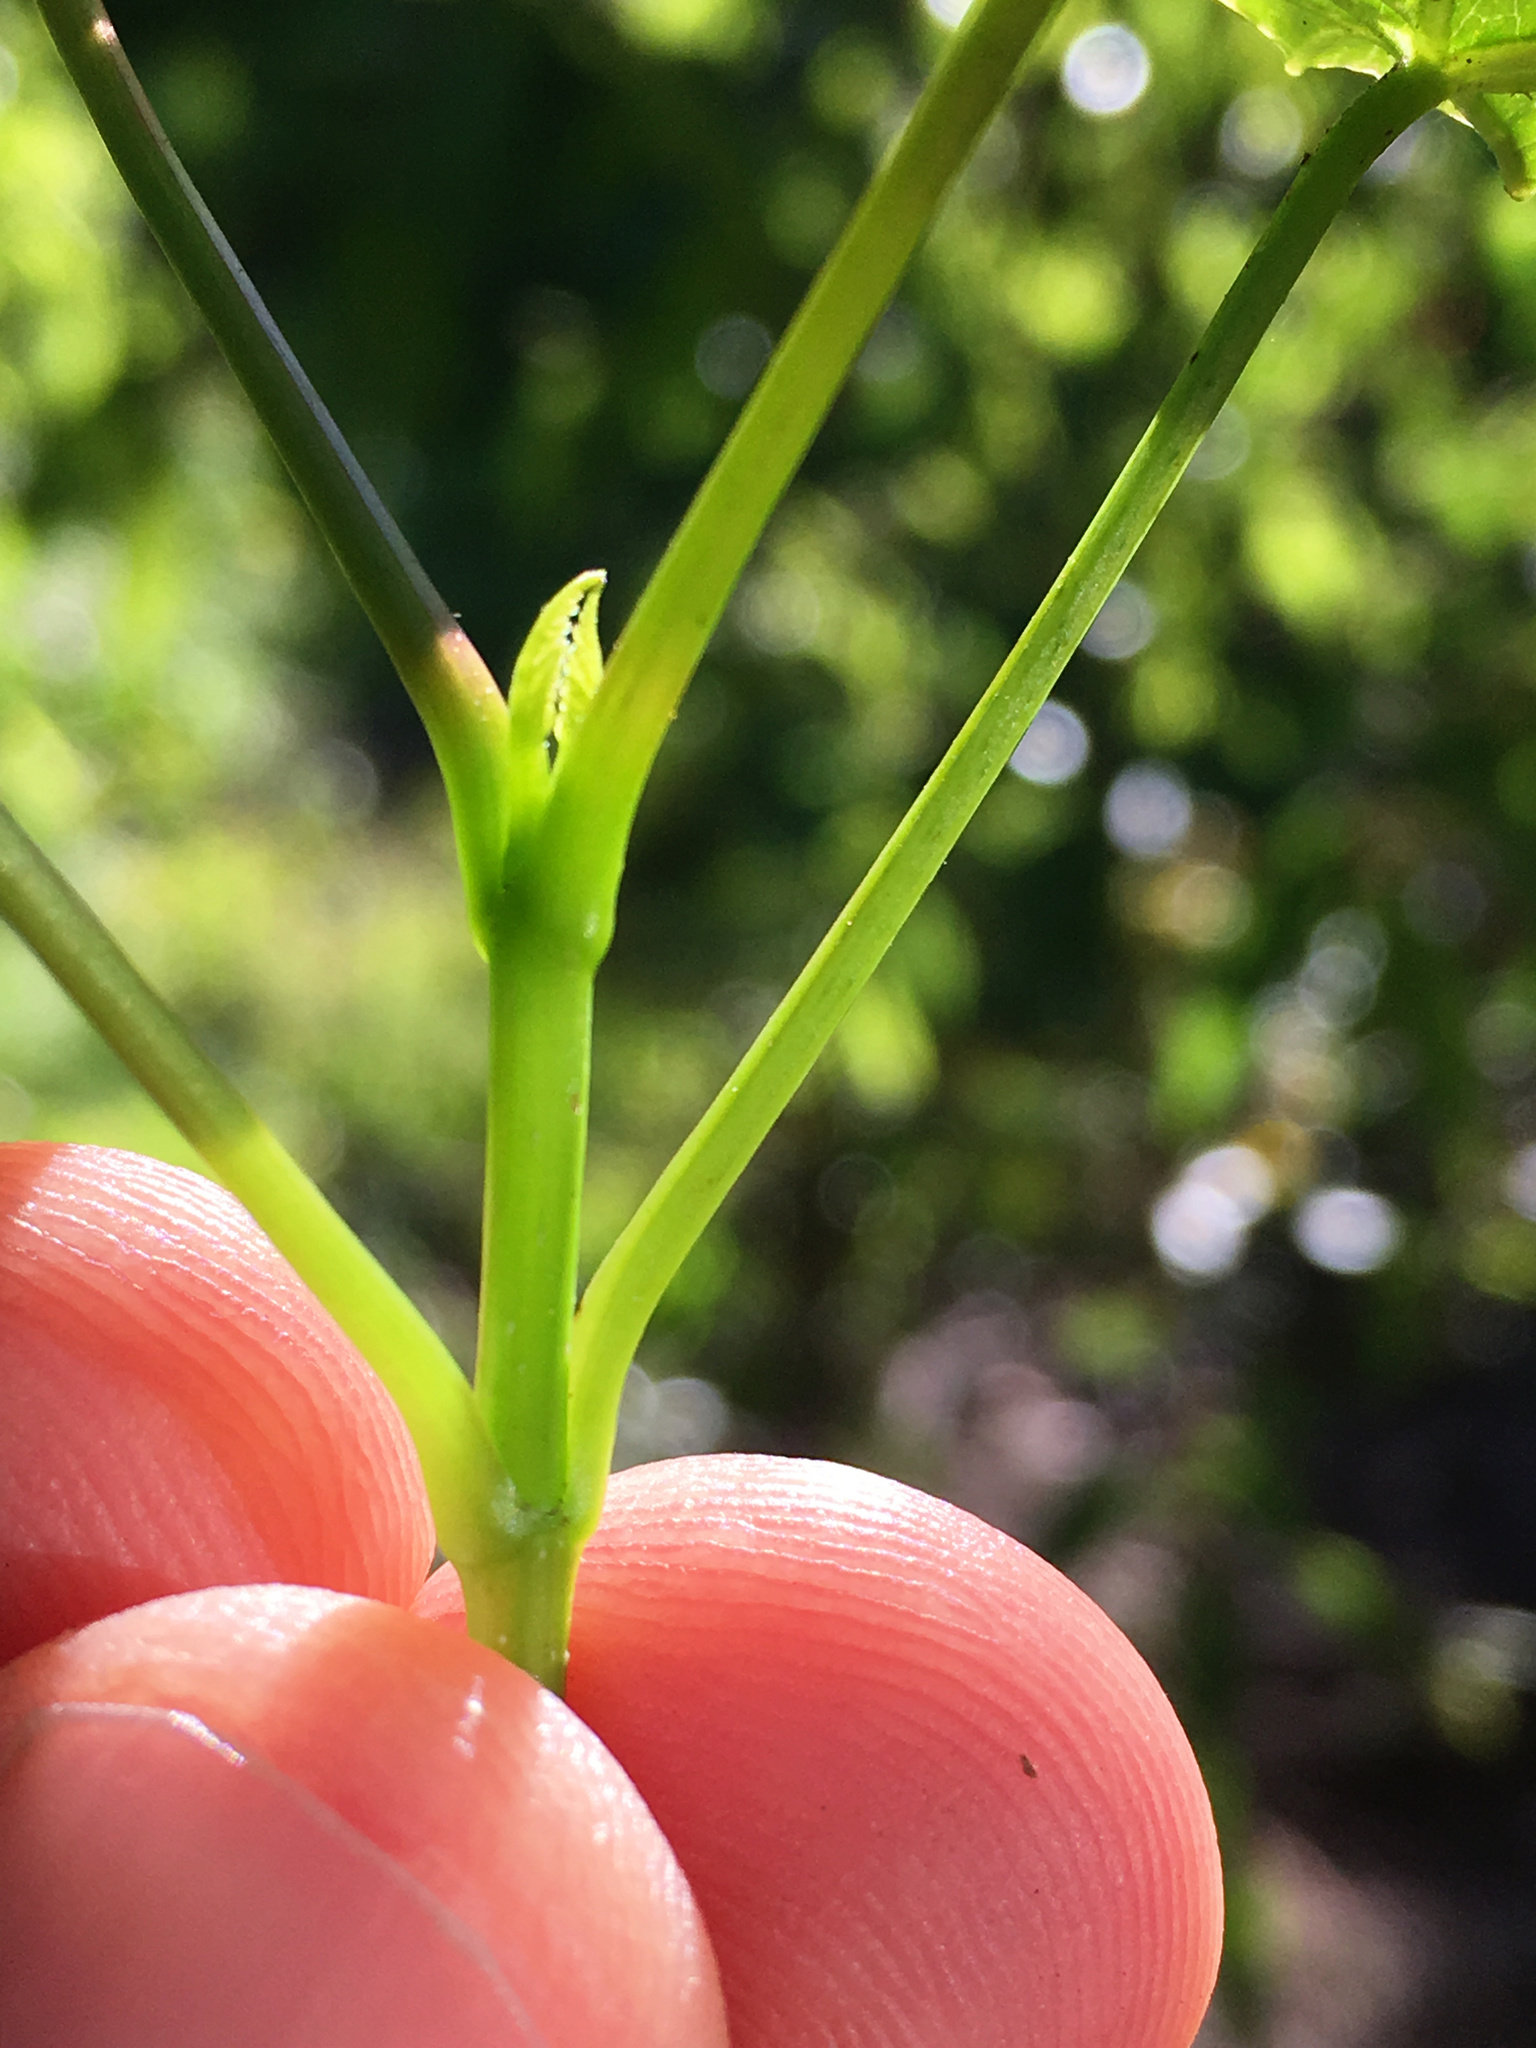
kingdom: Plantae
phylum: Tracheophyta
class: Magnoliopsida
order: Sapindales
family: Sapindaceae
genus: Acer
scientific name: Acer pseudoplatanus
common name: Sycamore
